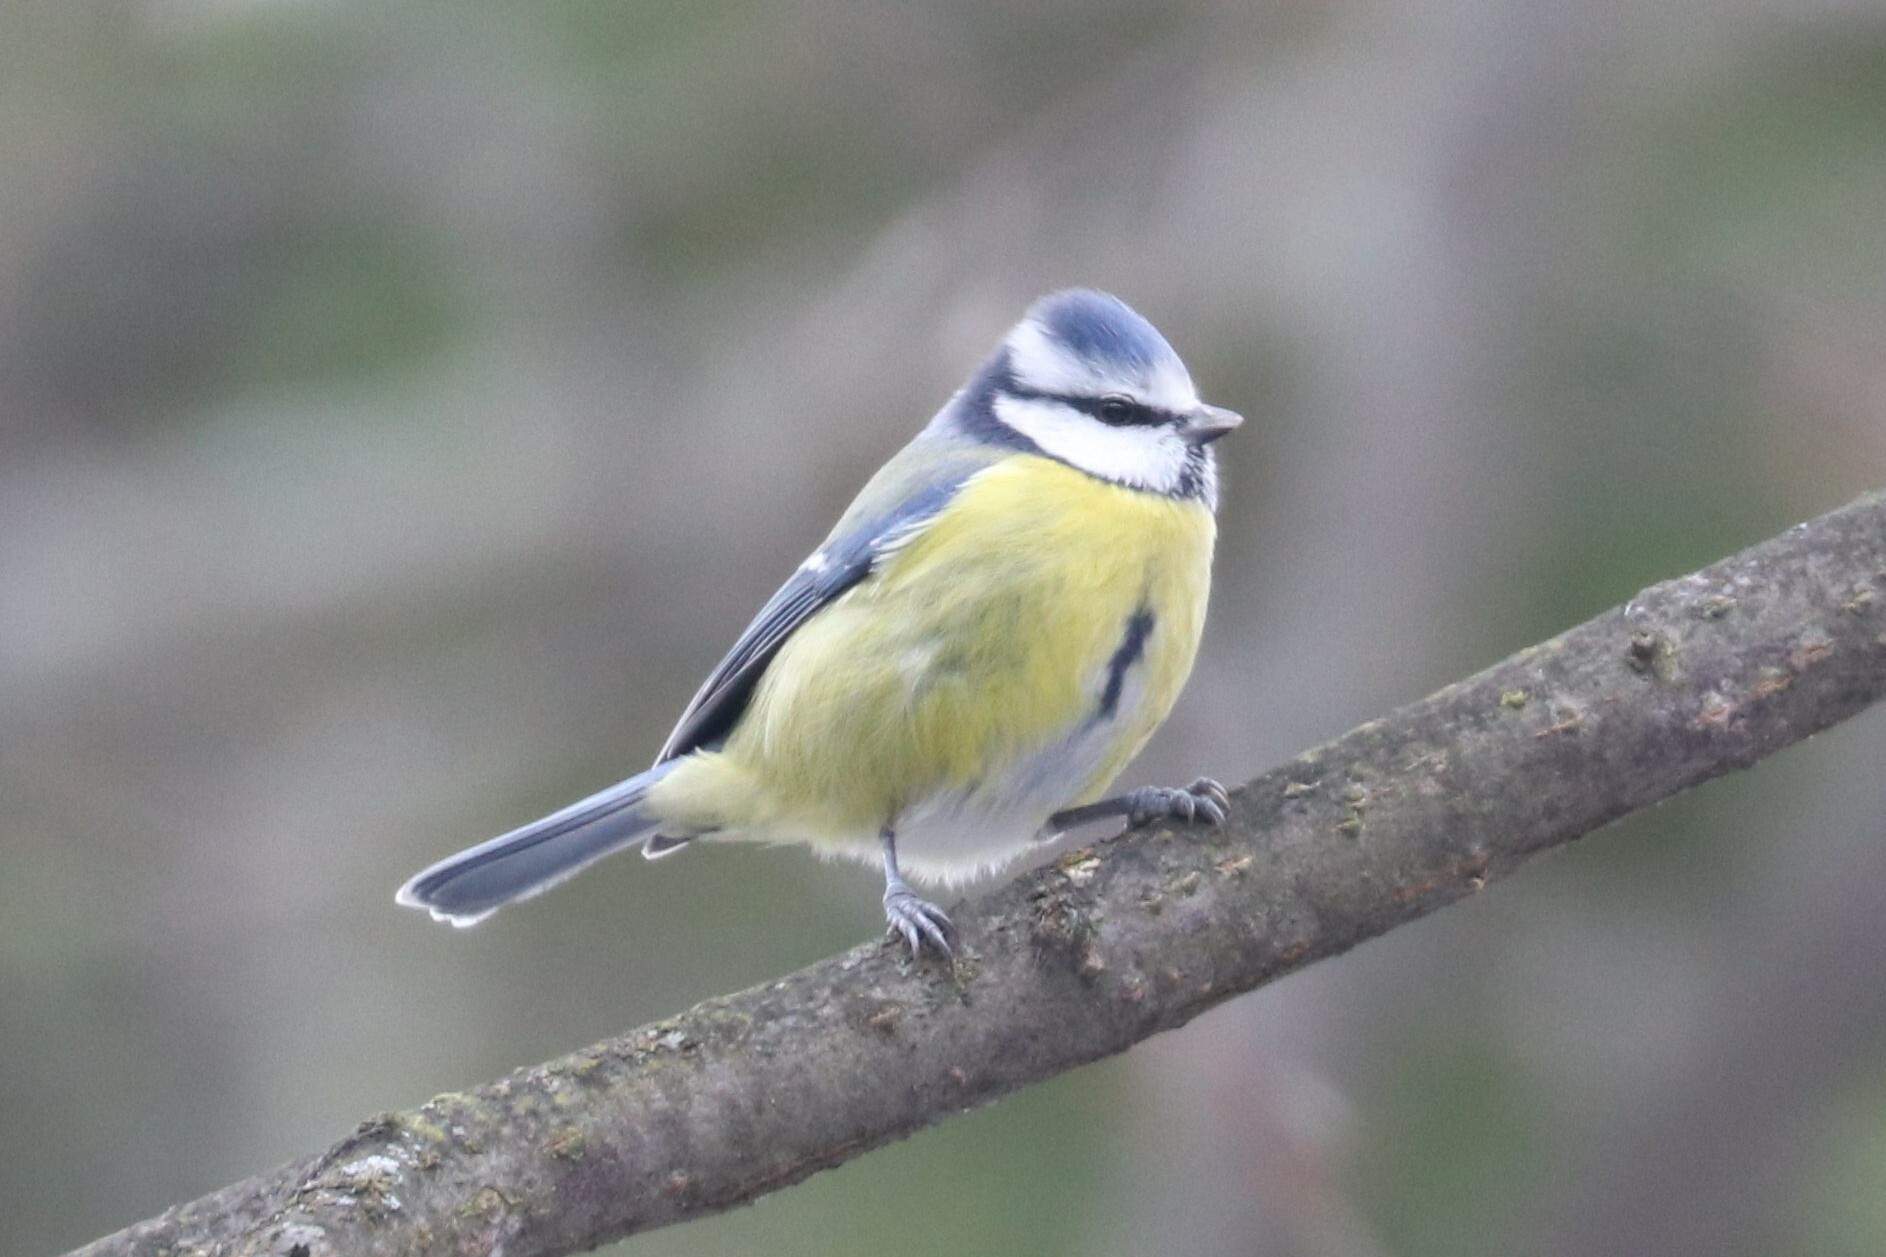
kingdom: Animalia
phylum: Chordata
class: Aves
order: Passeriformes
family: Paridae
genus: Cyanistes
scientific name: Cyanistes caeruleus
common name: Eurasian blue tit
